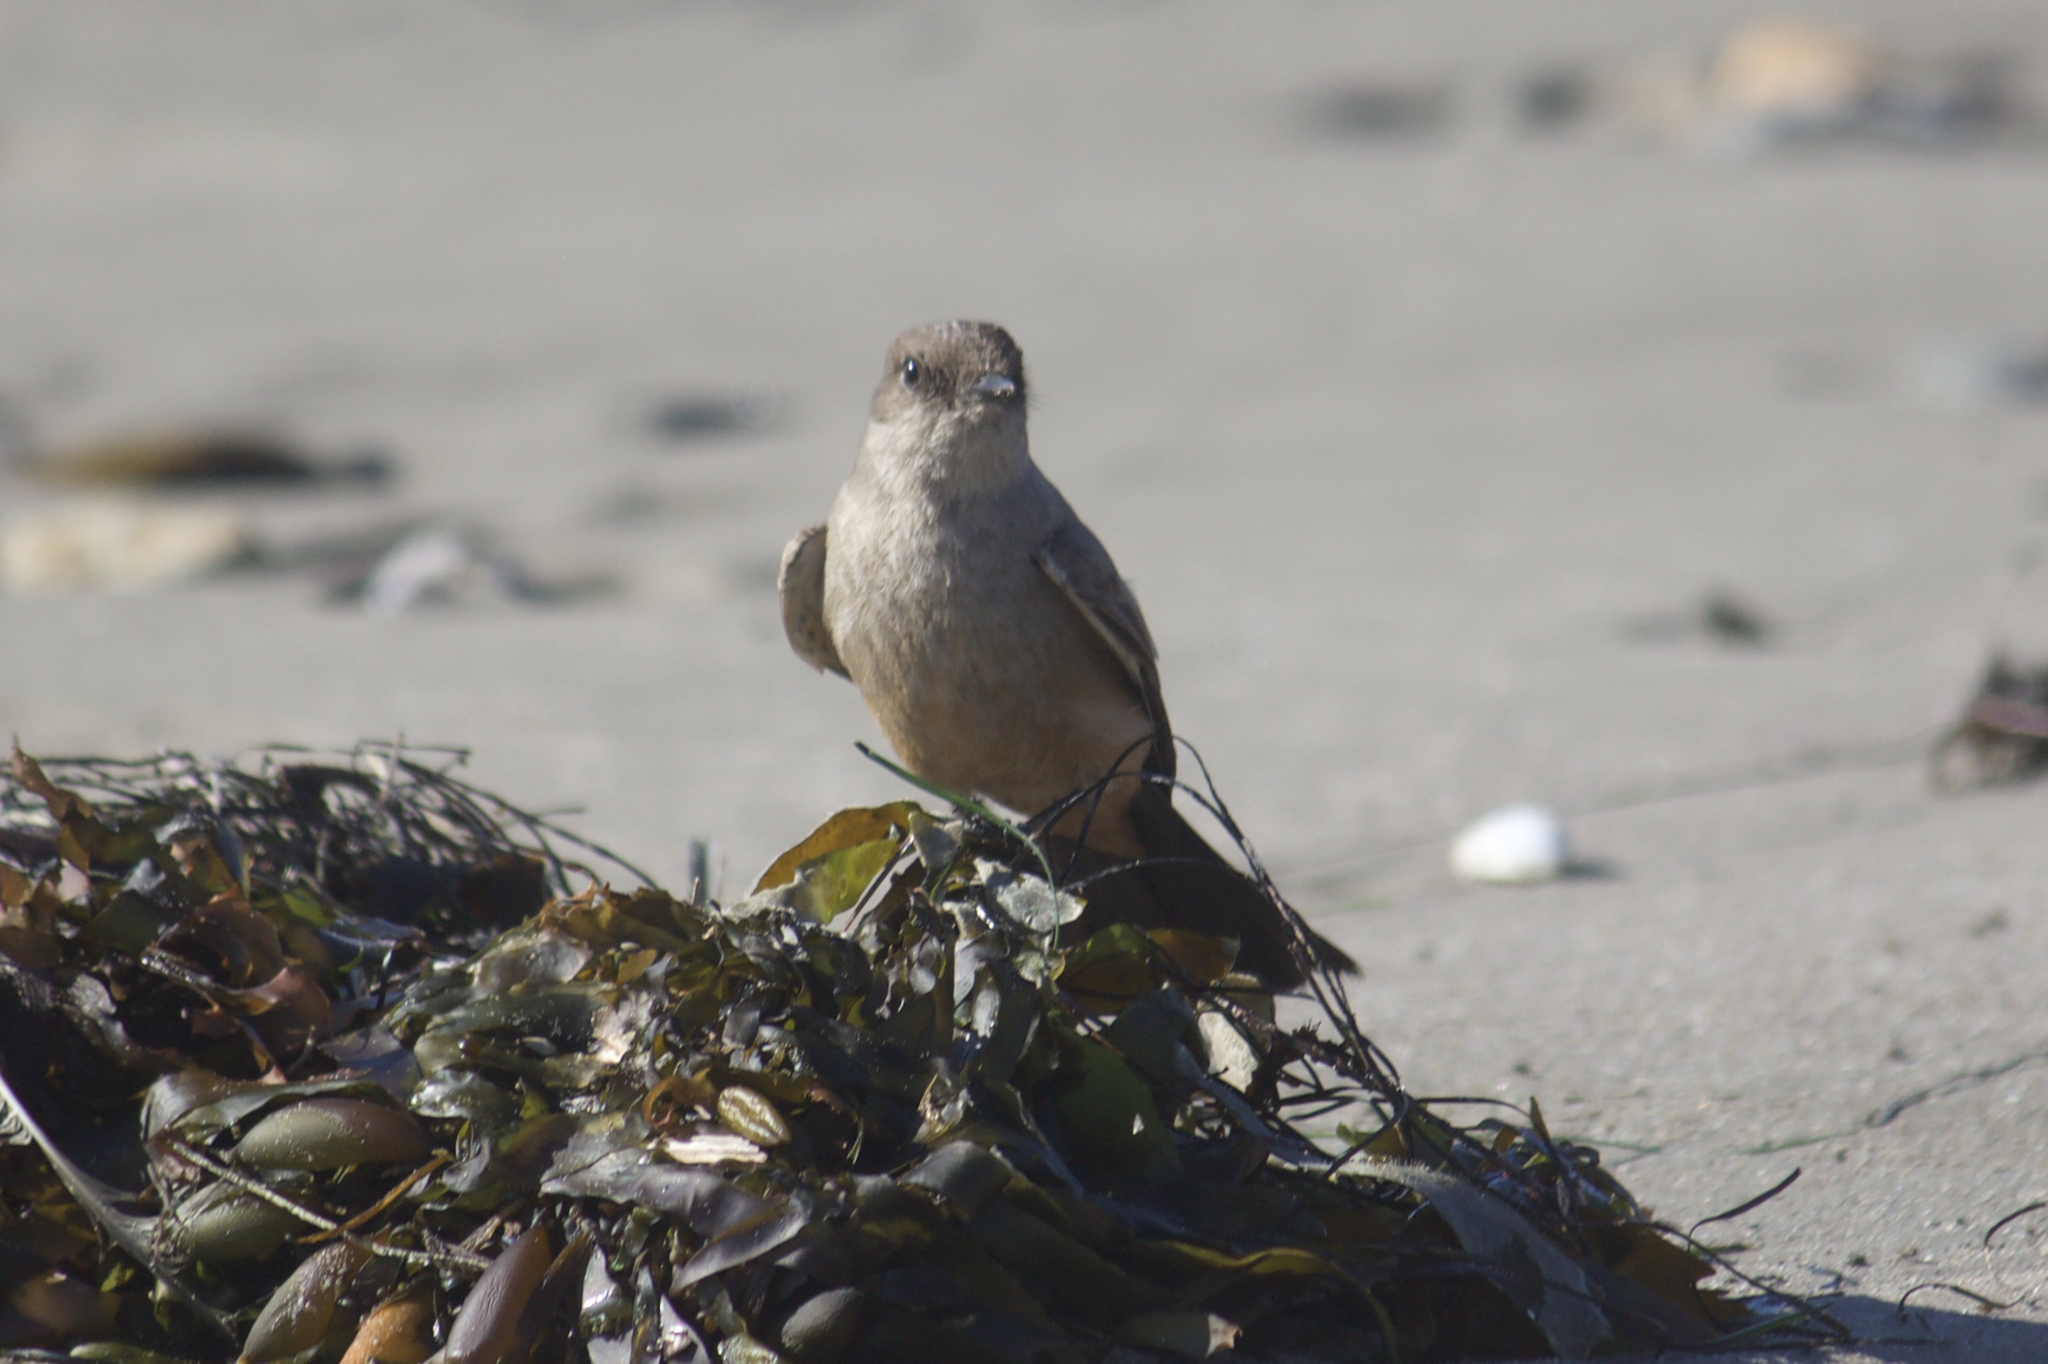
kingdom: Animalia
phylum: Chordata
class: Aves
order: Passeriformes
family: Tyrannidae
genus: Sayornis
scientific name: Sayornis saya
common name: Say's phoebe
